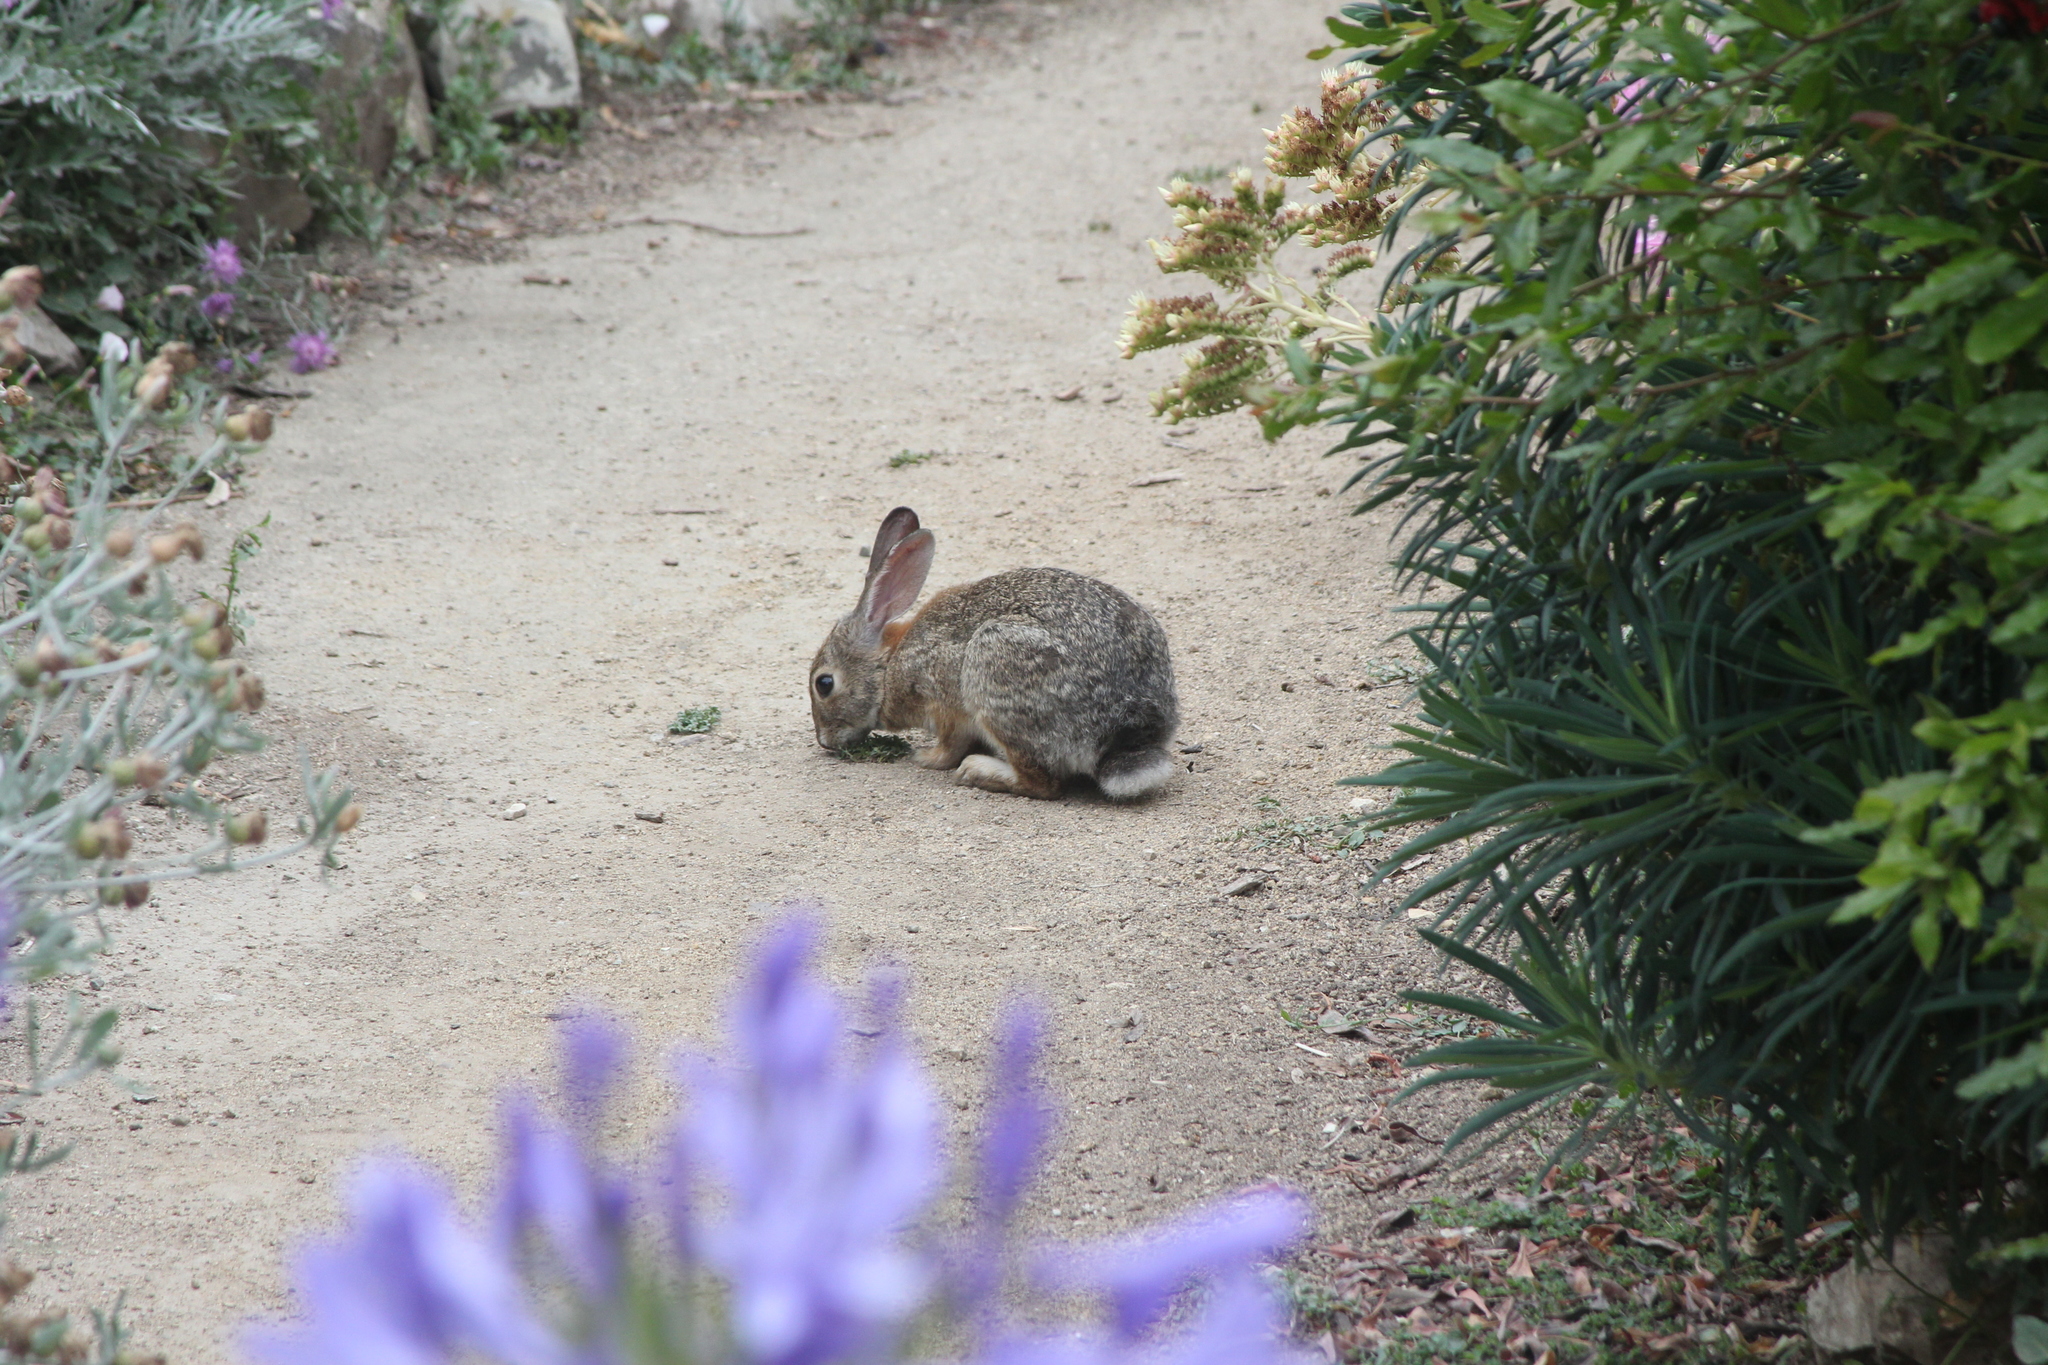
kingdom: Animalia
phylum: Chordata
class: Mammalia
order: Lagomorpha
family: Leporidae
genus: Sylvilagus
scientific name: Sylvilagus audubonii
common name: Desert cottontail
